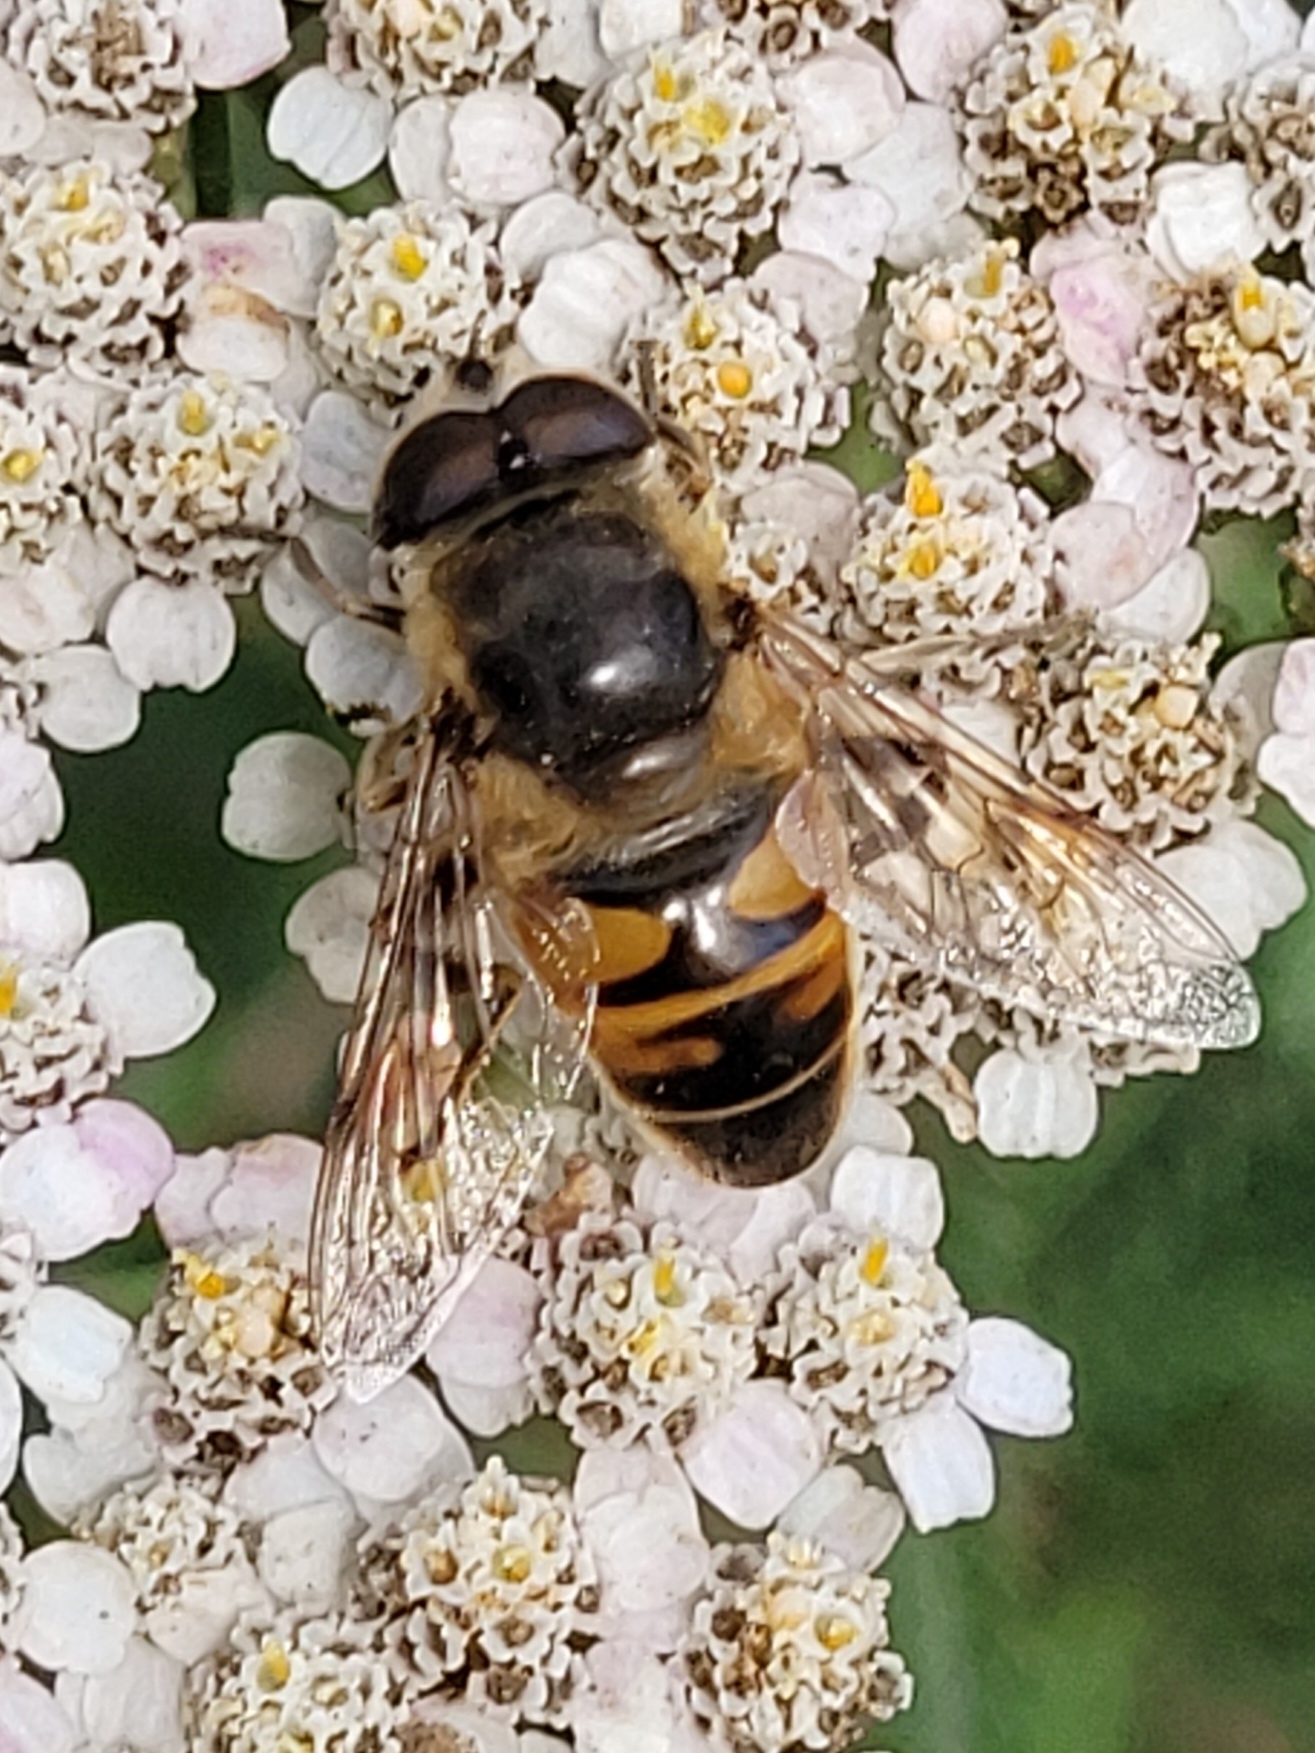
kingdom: Animalia
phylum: Arthropoda
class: Insecta
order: Diptera
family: Syrphidae
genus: Eristalis
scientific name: Eristalis tenax
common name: Drone fly
